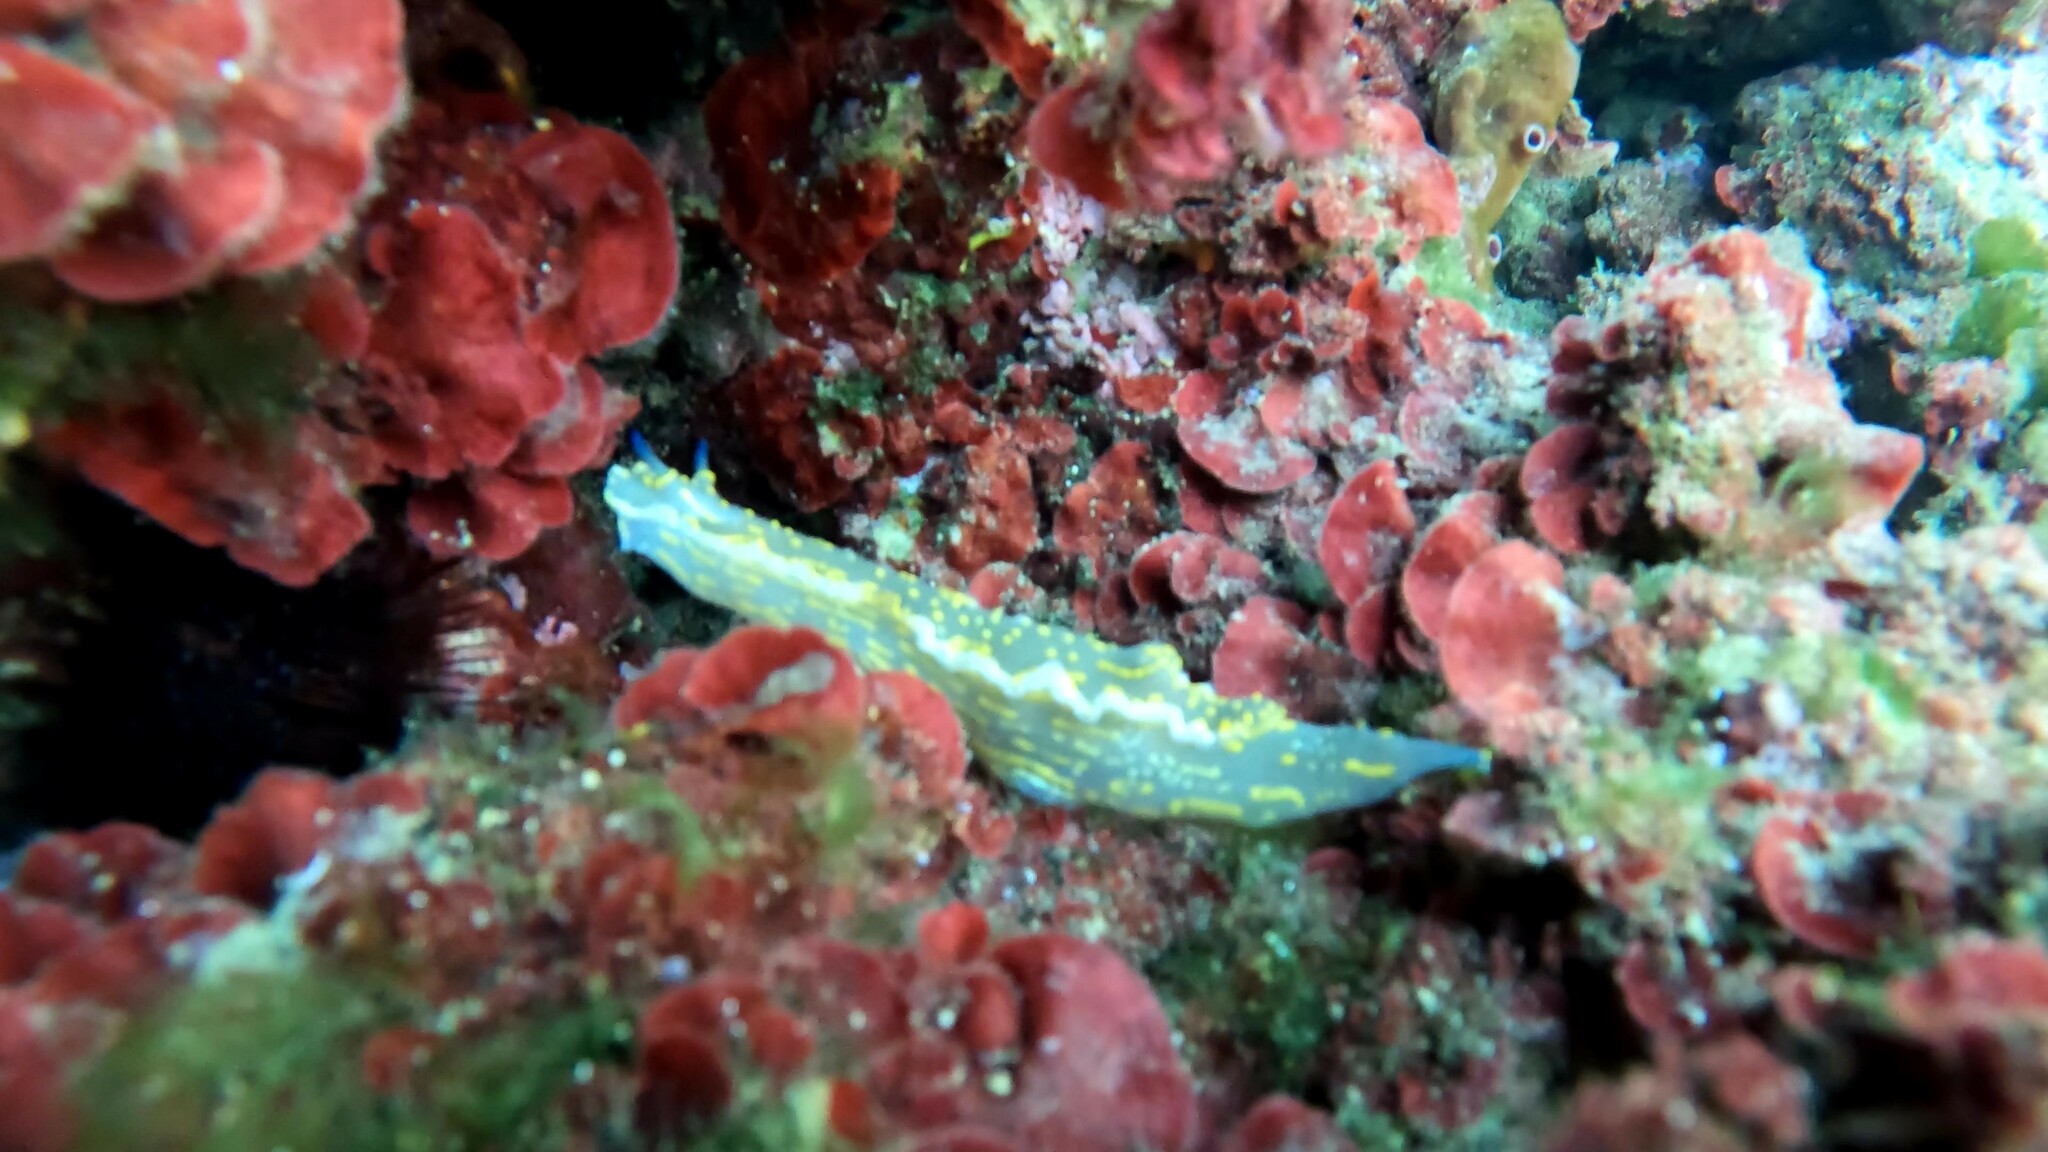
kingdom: Animalia
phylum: Mollusca
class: Gastropoda
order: Nudibranchia
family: Chromodorididae
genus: Felimare
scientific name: Felimare picta
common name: Giant doris
